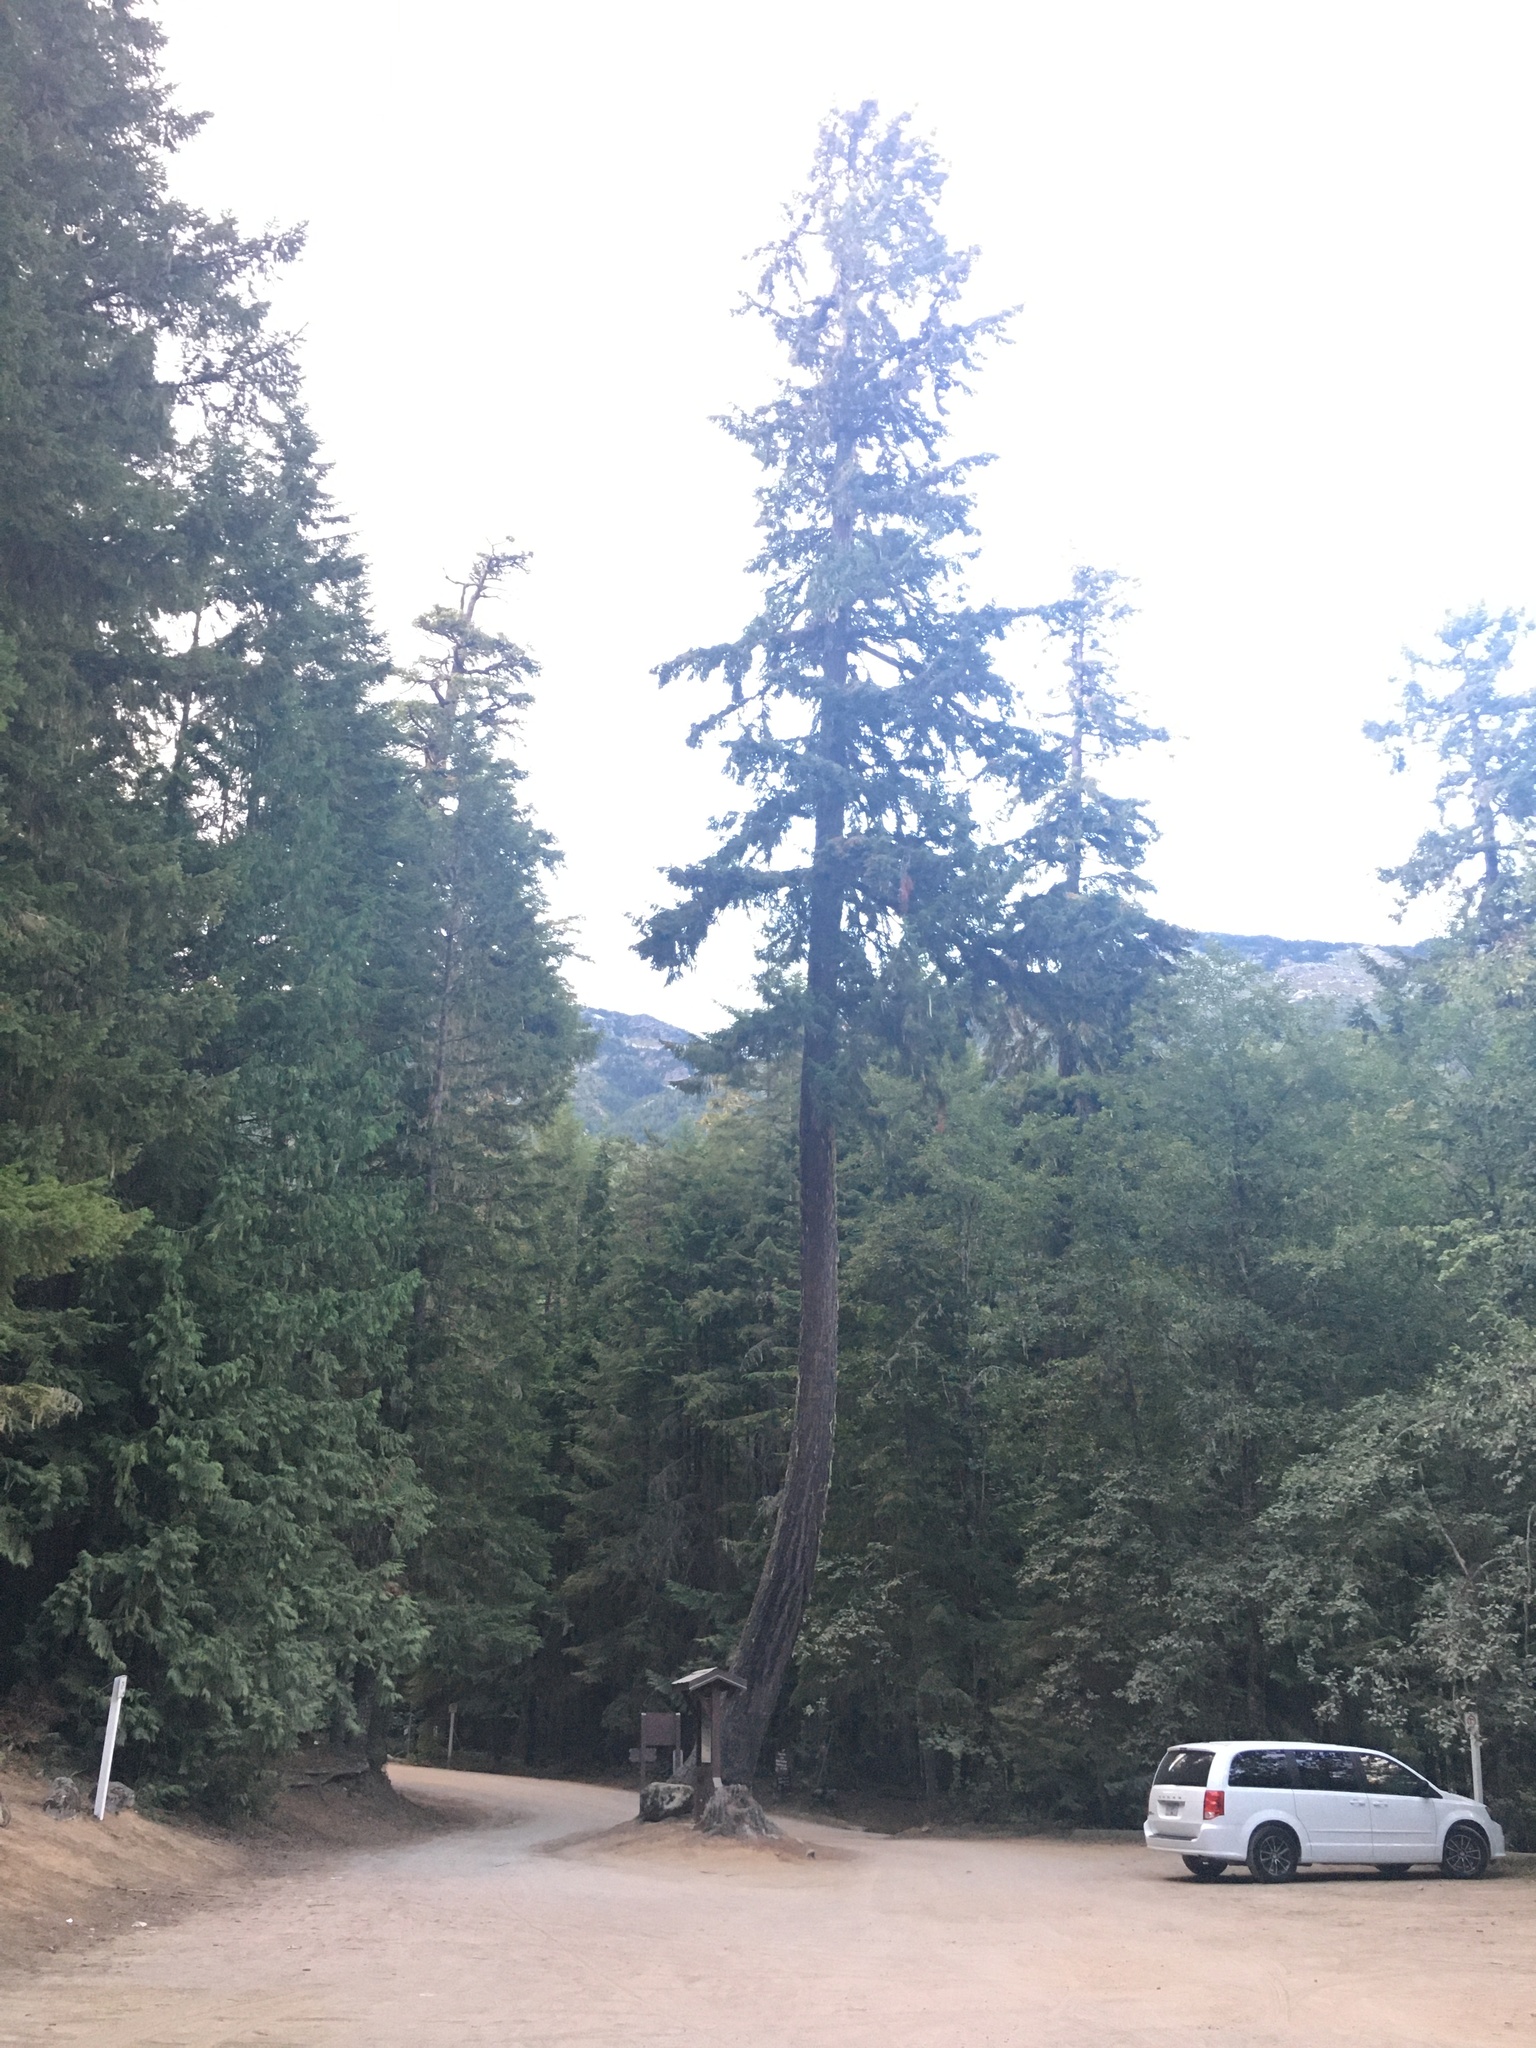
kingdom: Plantae
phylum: Tracheophyta
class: Pinopsida
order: Pinales
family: Pinaceae
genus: Pseudotsuga
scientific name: Pseudotsuga menziesii
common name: Douglas fir
